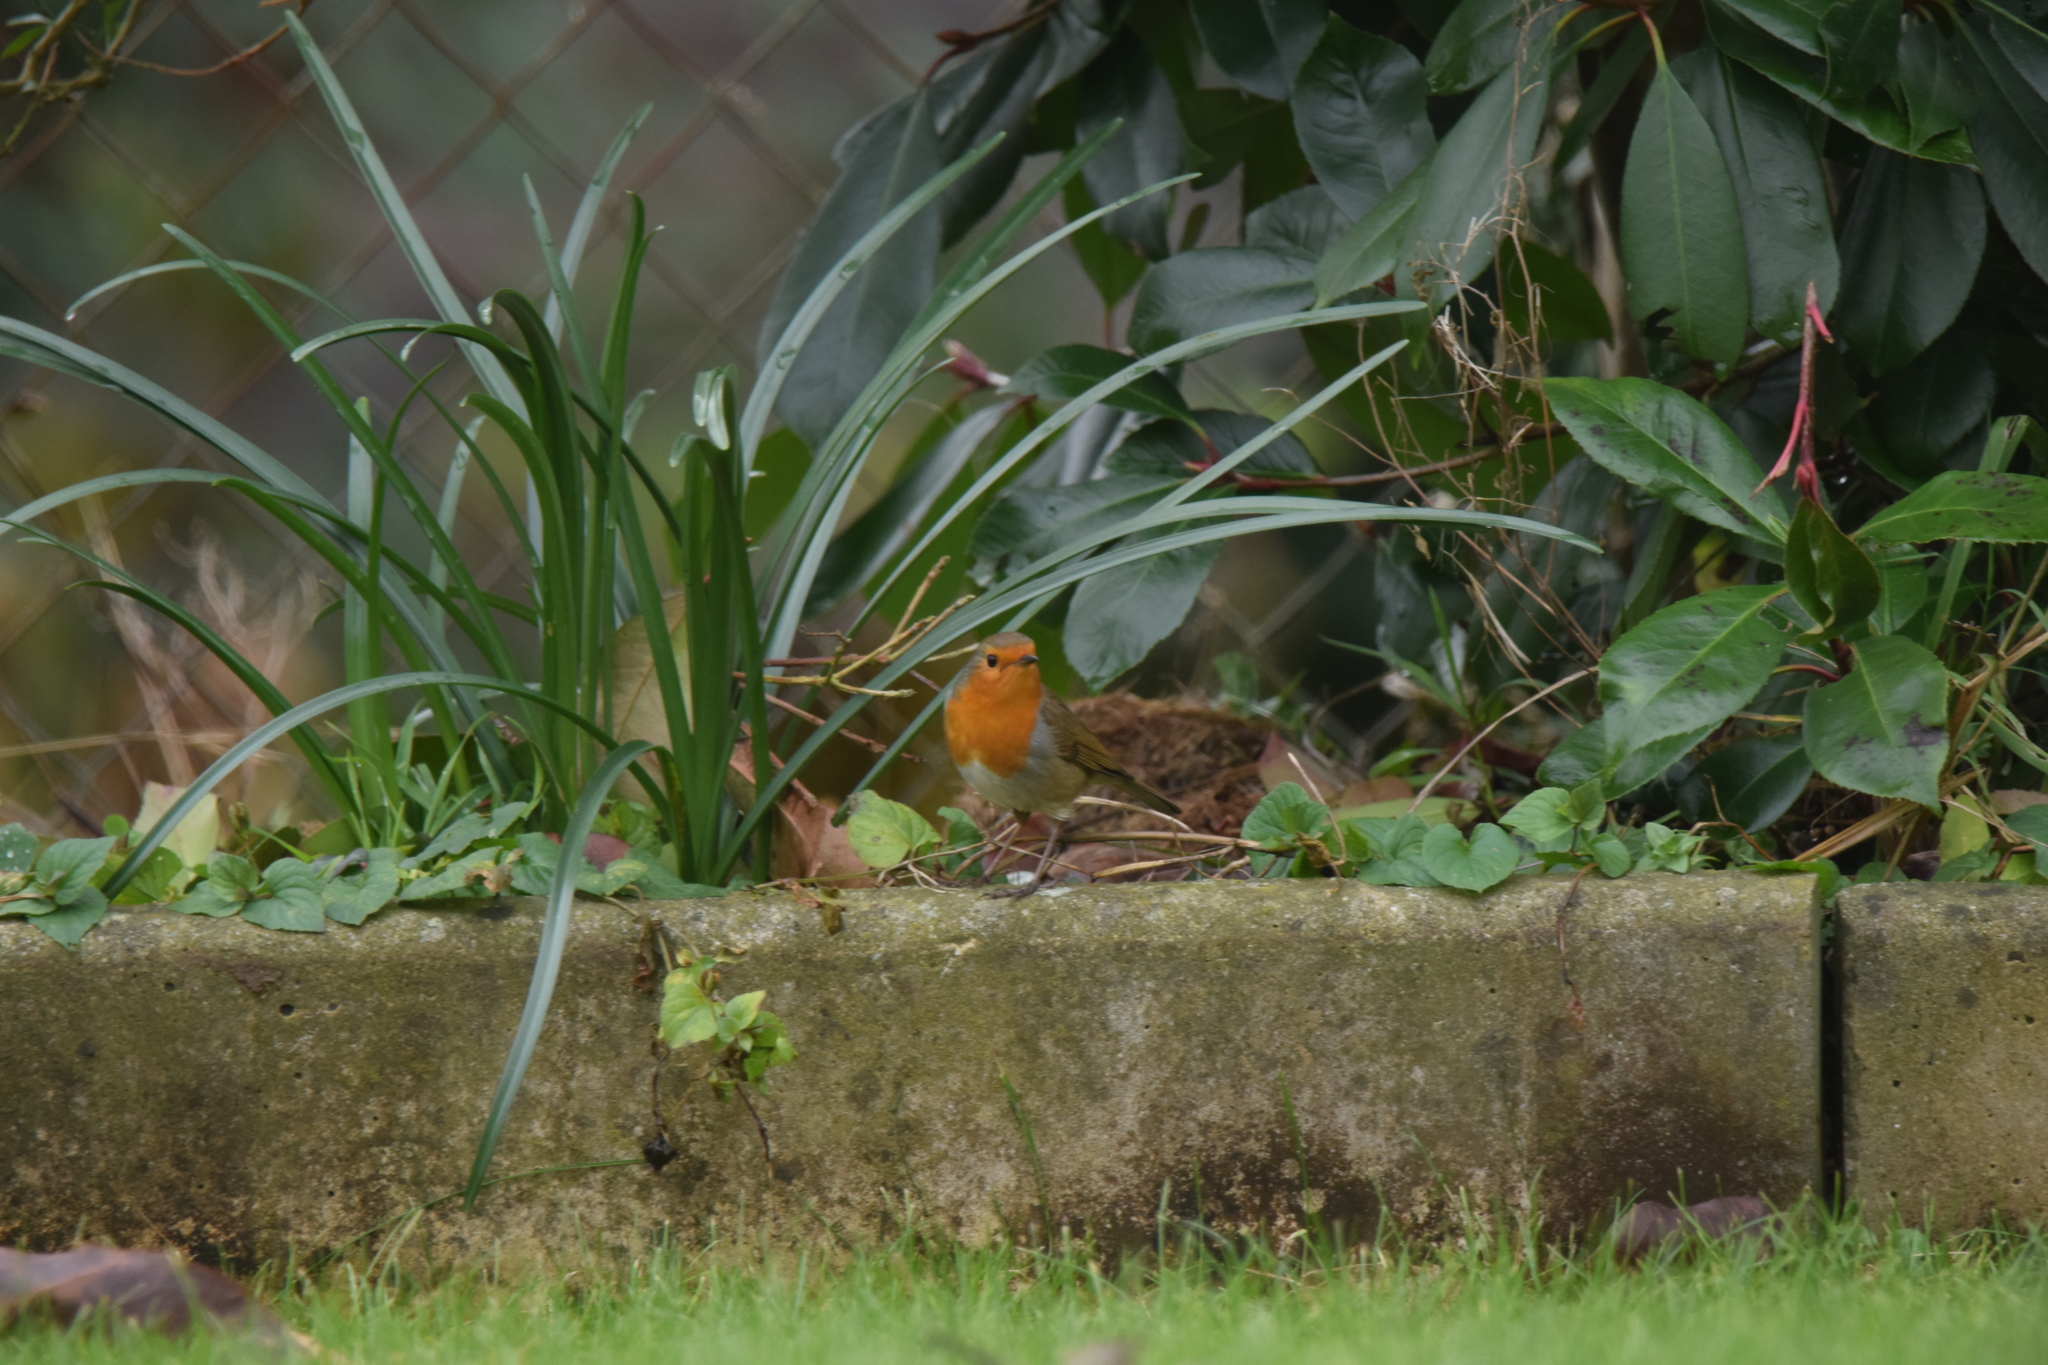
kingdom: Animalia
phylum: Chordata
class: Aves
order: Passeriformes
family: Muscicapidae
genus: Erithacus
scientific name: Erithacus rubecula
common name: European robin
